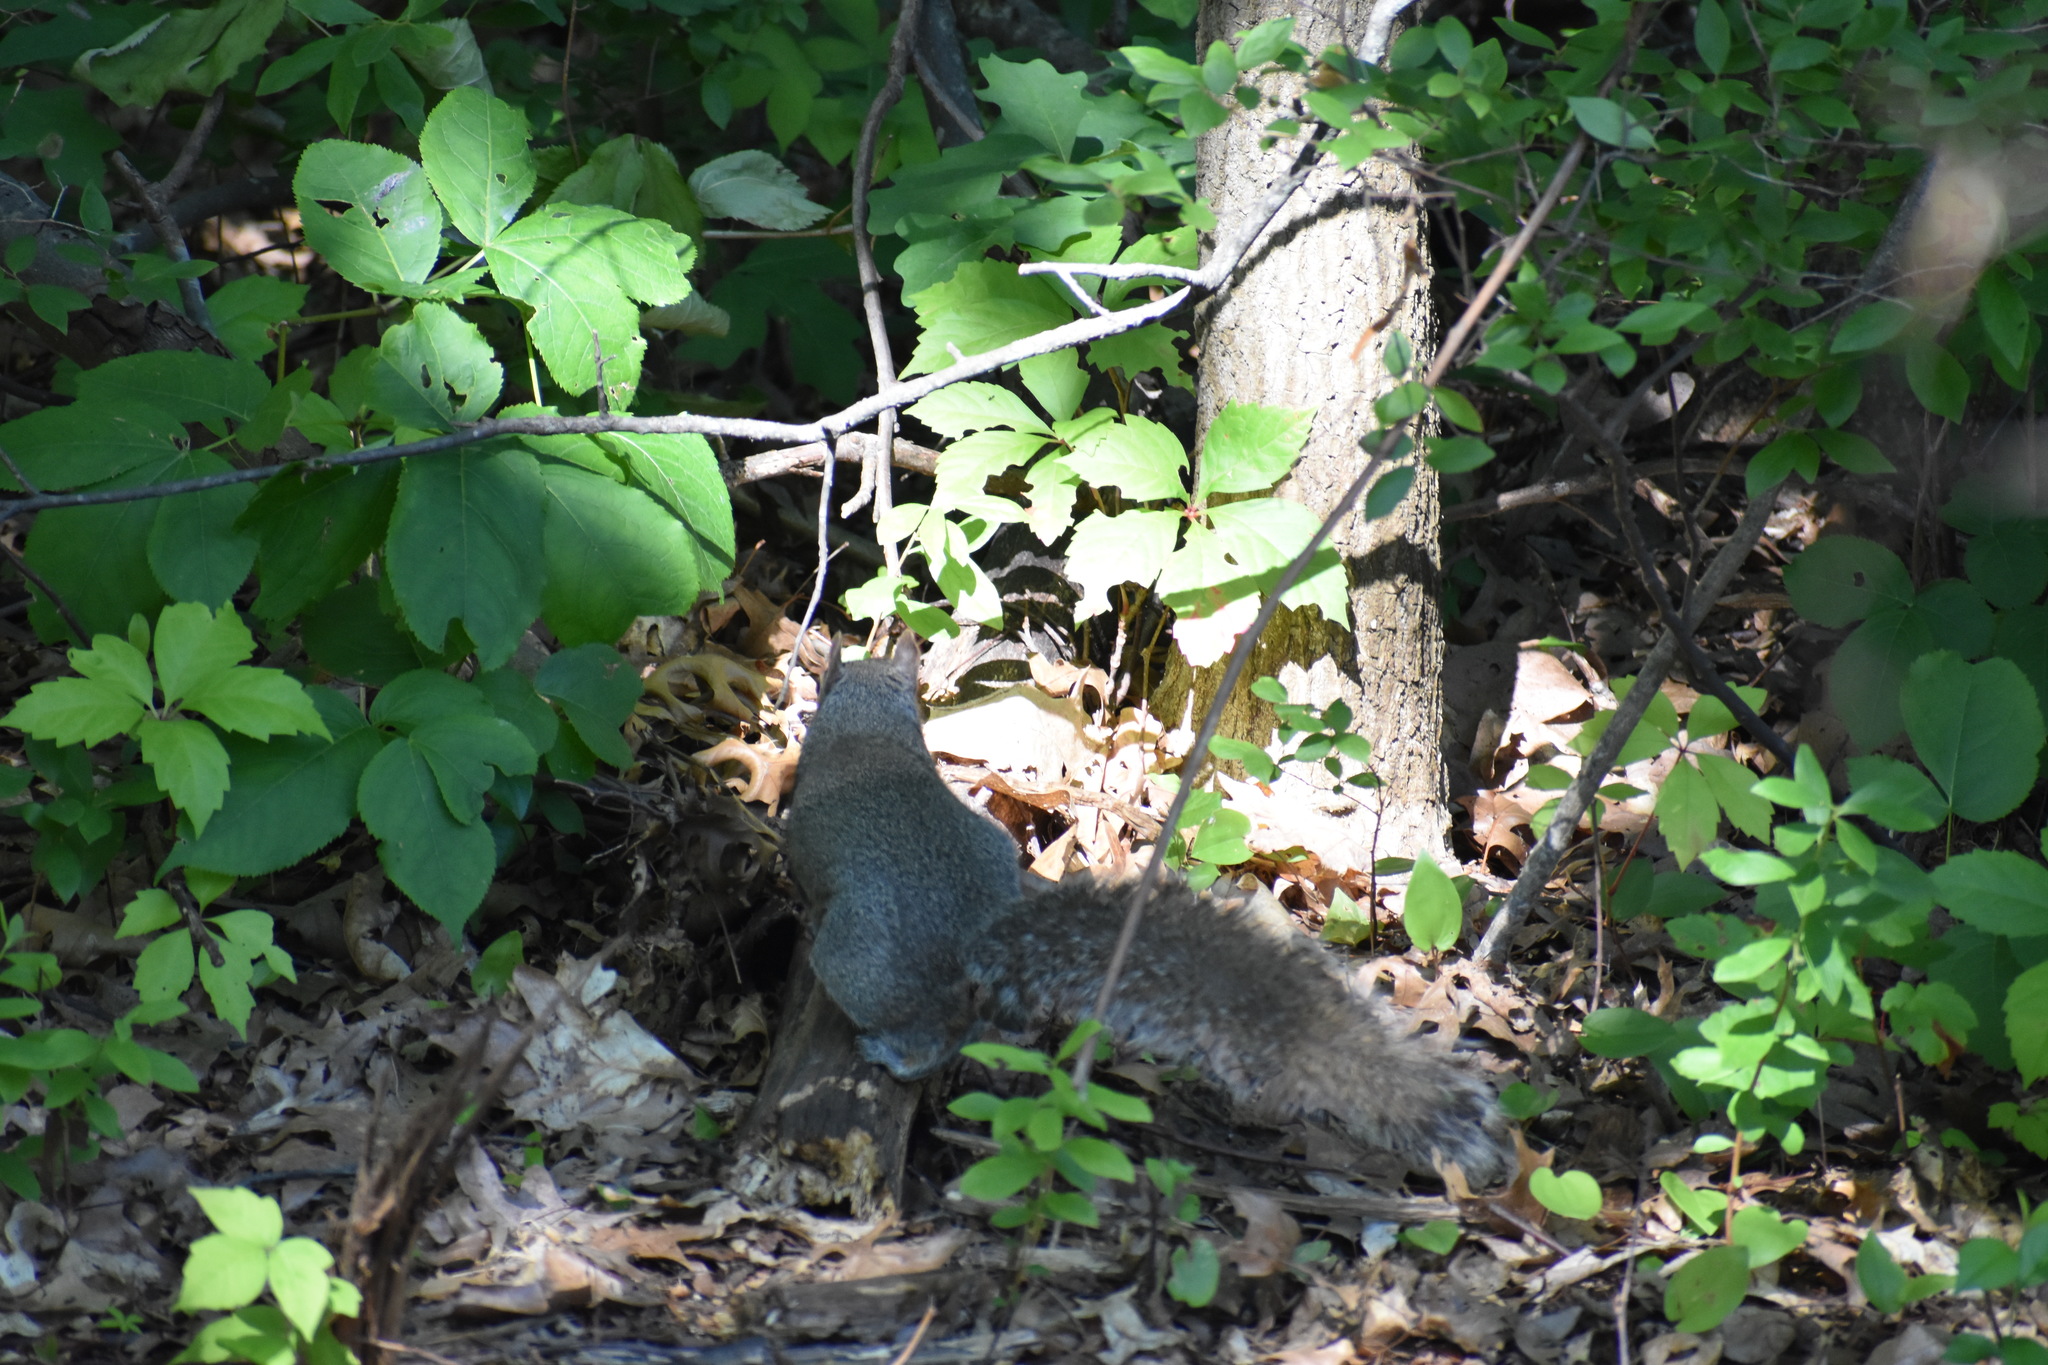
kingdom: Animalia
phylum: Chordata
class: Mammalia
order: Rodentia
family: Sciuridae
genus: Sciurus
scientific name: Sciurus carolinensis
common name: Eastern gray squirrel
